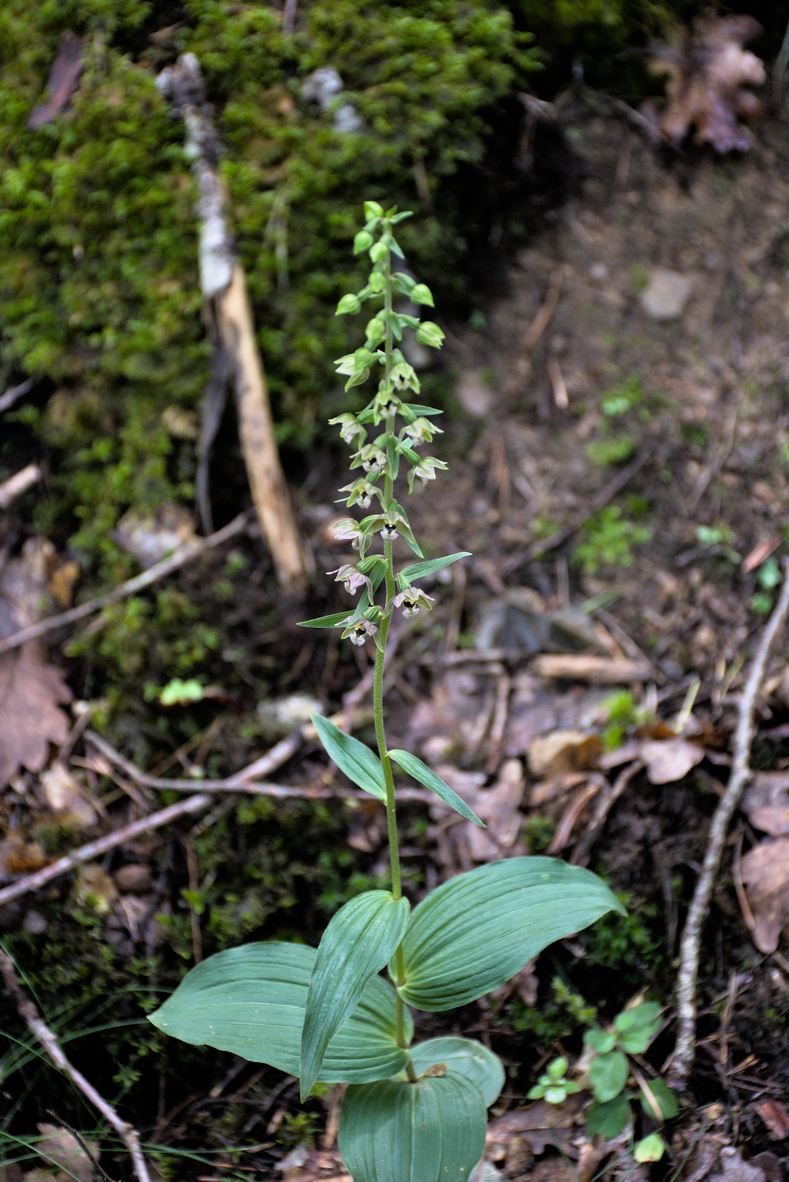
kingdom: Plantae
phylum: Tracheophyta
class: Liliopsida
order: Asparagales
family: Orchidaceae
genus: Epipactis
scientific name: Epipactis helleborine
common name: Broad-leaved helleborine
